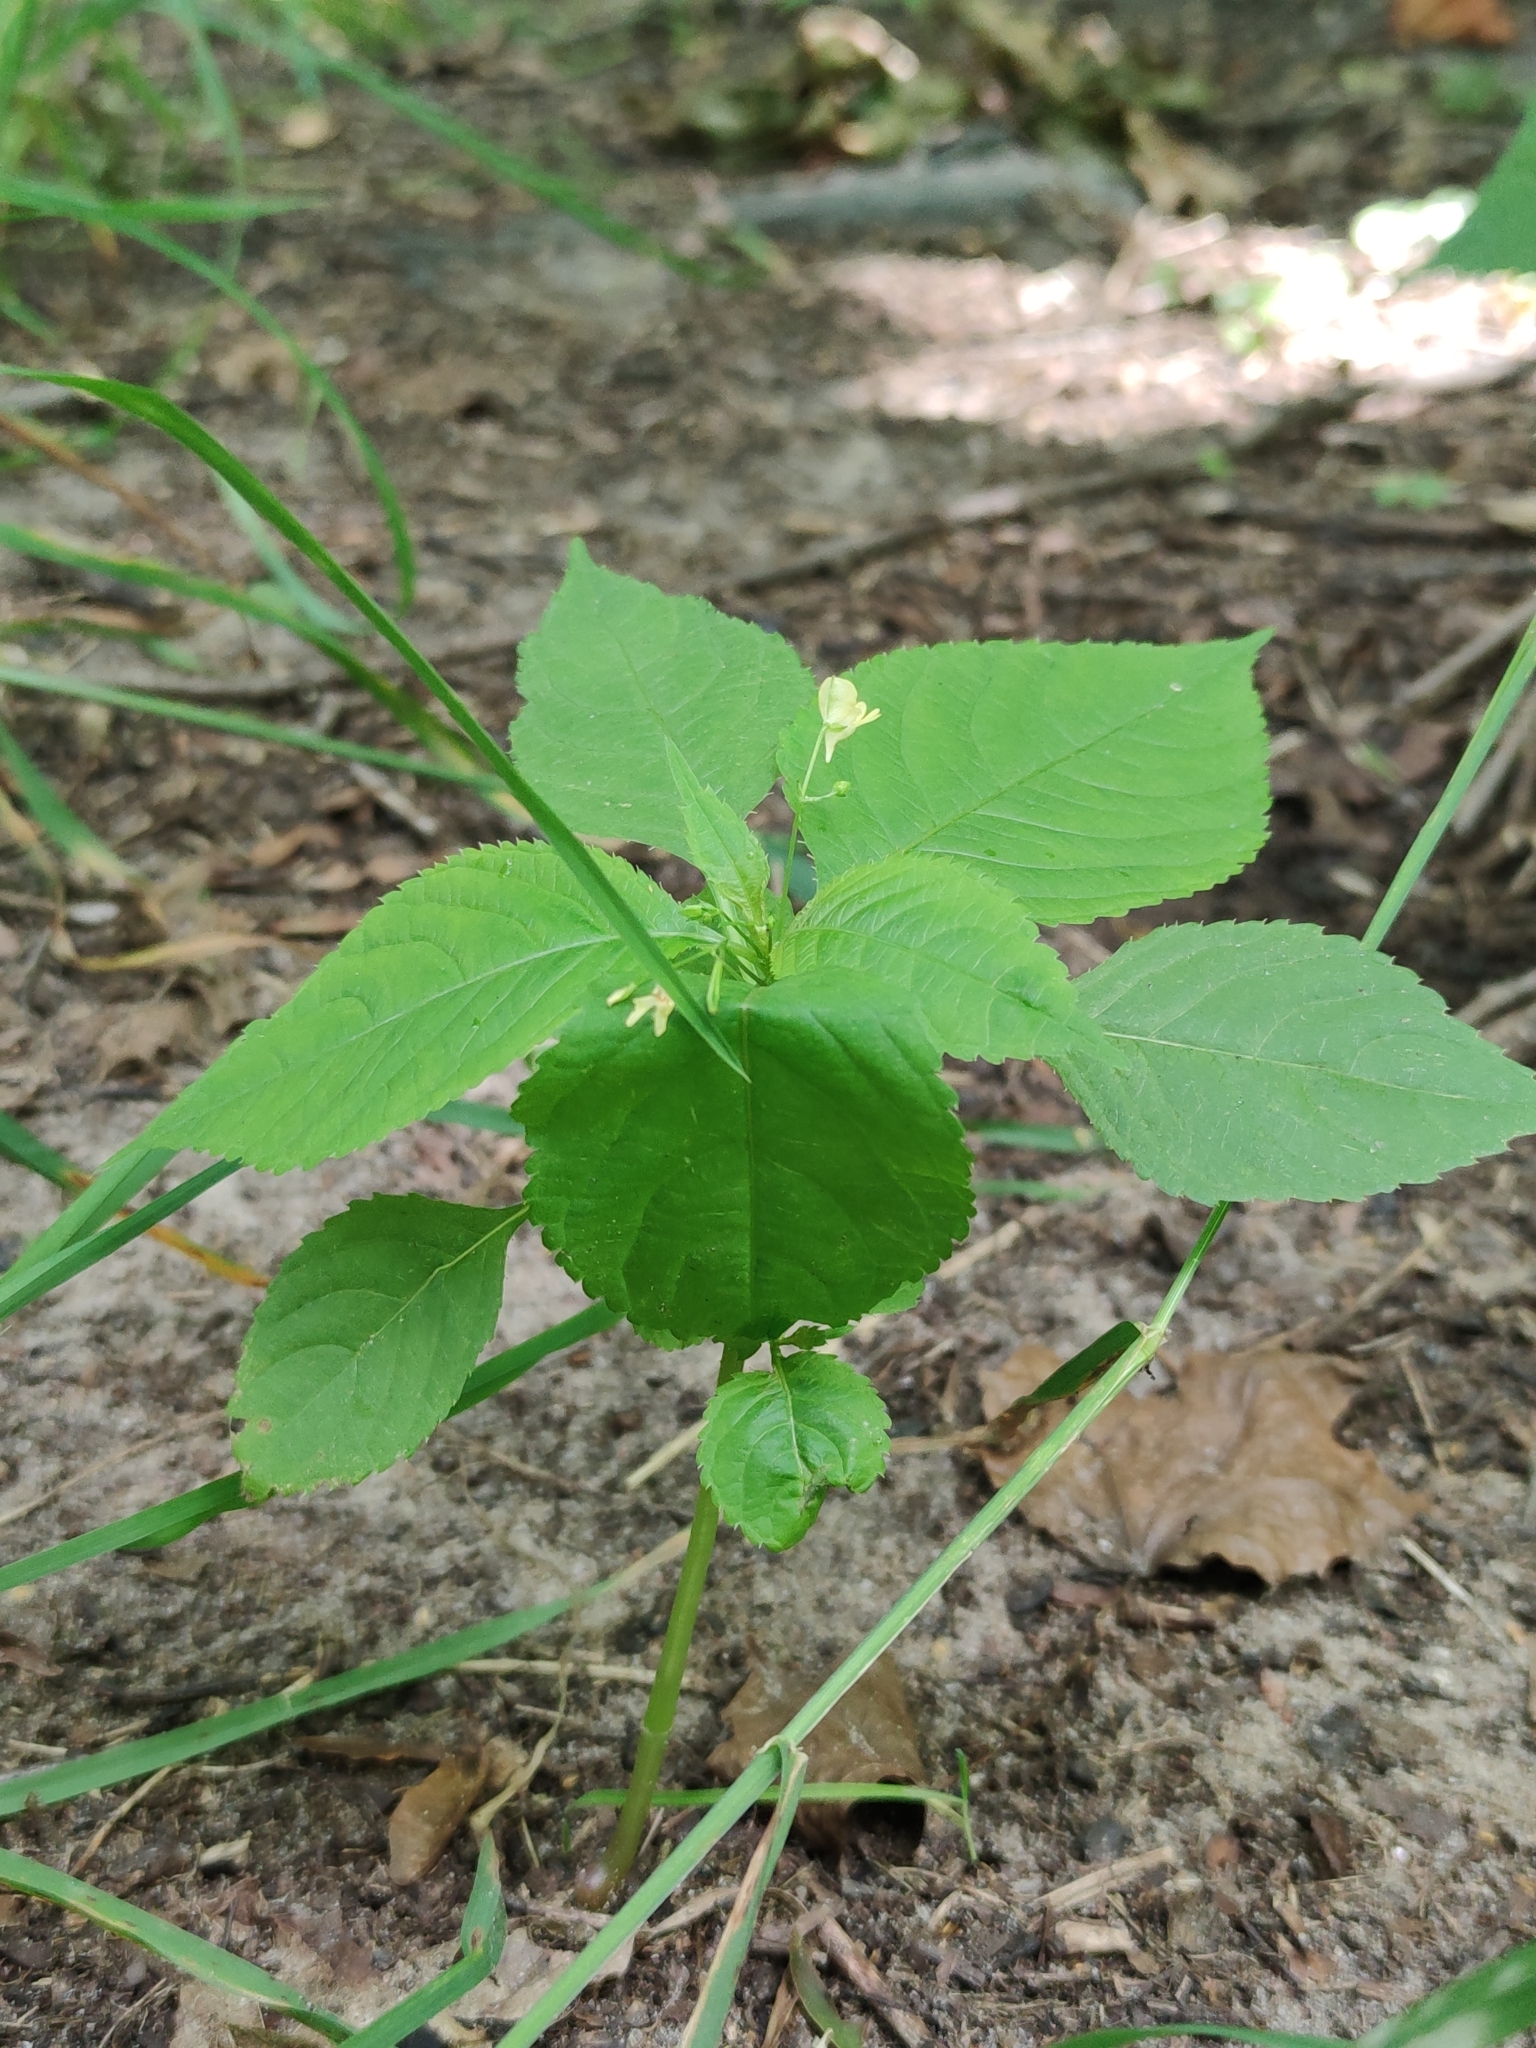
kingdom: Plantae
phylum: Tracheophyta
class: Magnoliopsida
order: Ericales
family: Balsaminaceae
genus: Impatiens
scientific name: Impatiens parviflora
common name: Small balsam
